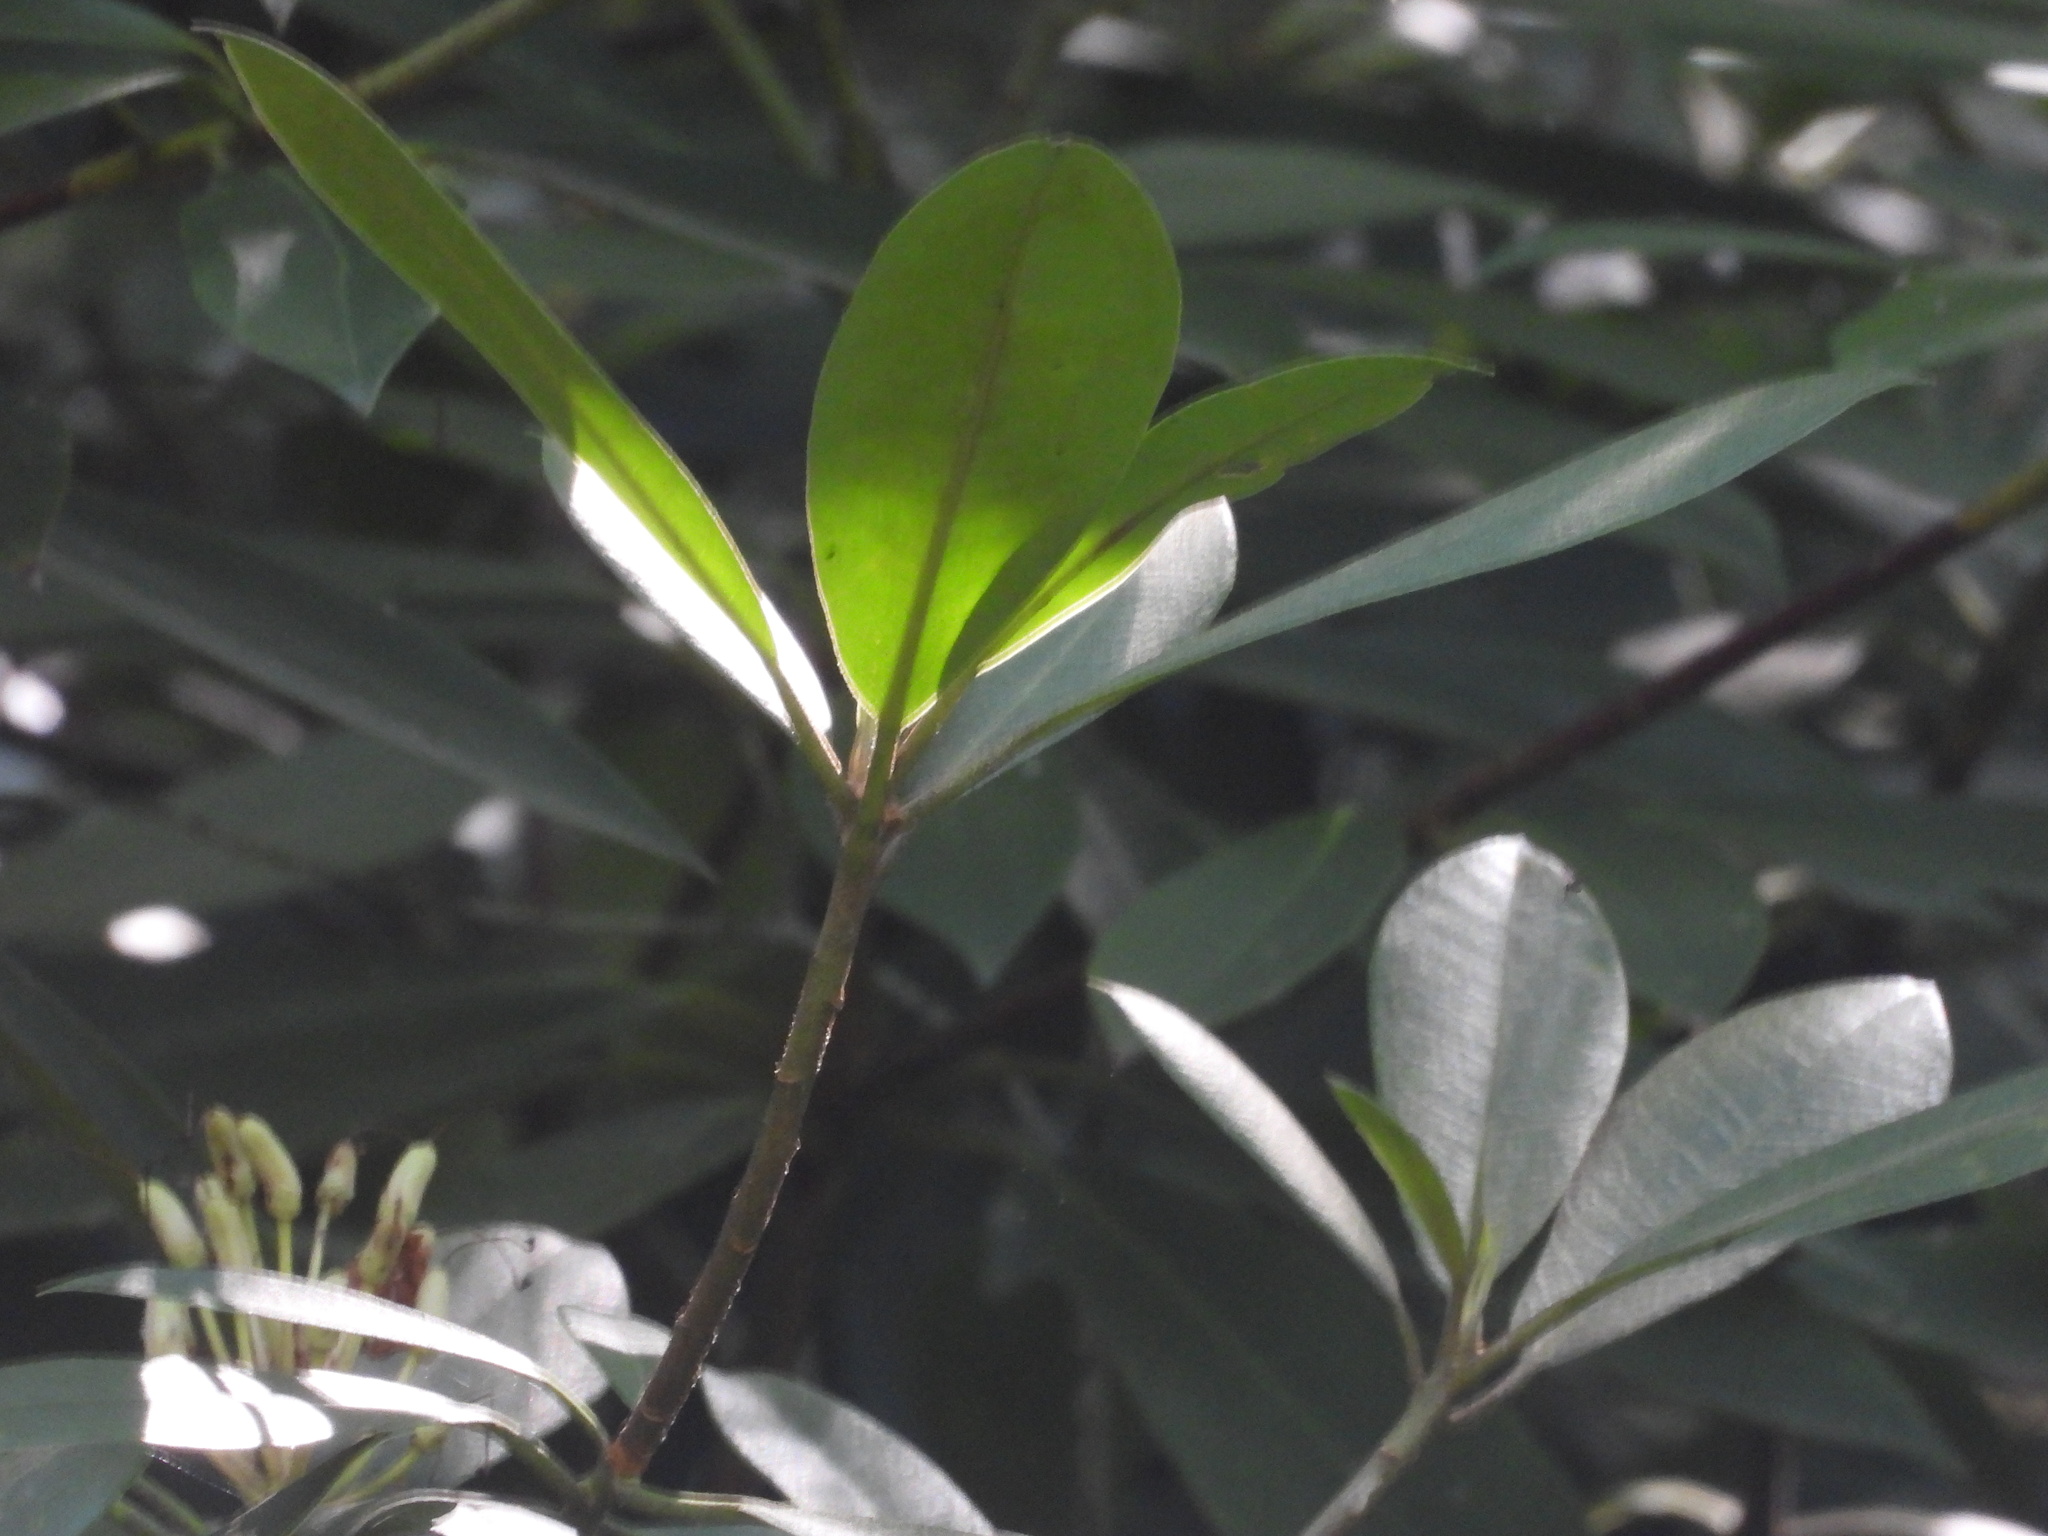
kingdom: Plantae
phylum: Tracheophyta
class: Magnoliopsida
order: Ericales
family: Ericaceae
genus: Rhododendron
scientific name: Rhododendron maximum
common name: Great rhododendron
